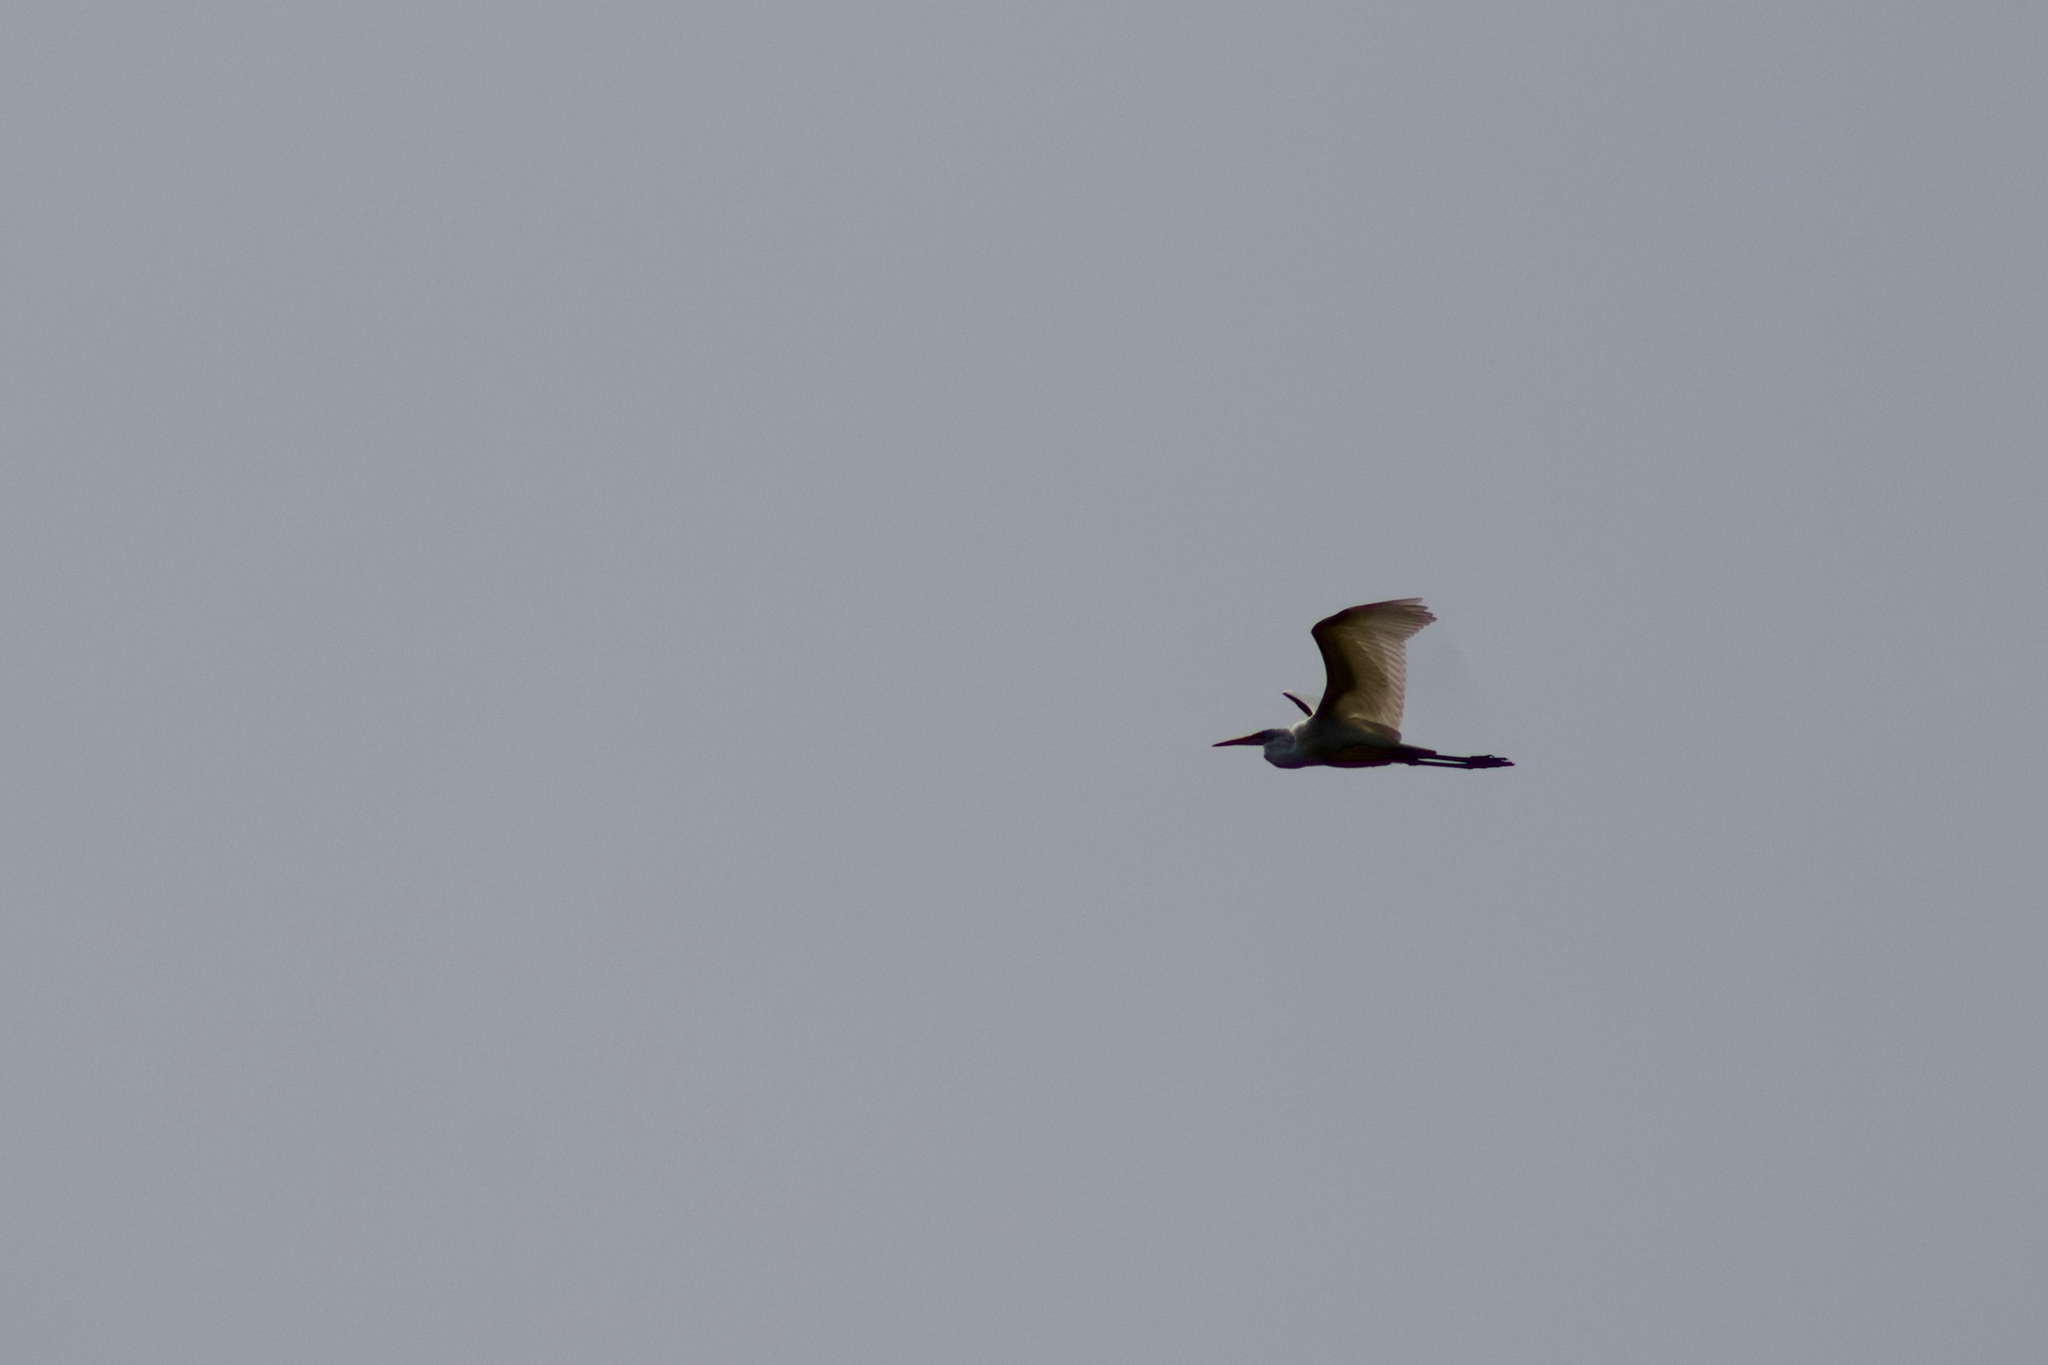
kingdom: Animalia
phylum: Chordata
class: Aves
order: Pelecaniformes
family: Ardeidae
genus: Ardea
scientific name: Ardea alba
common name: Great egret
